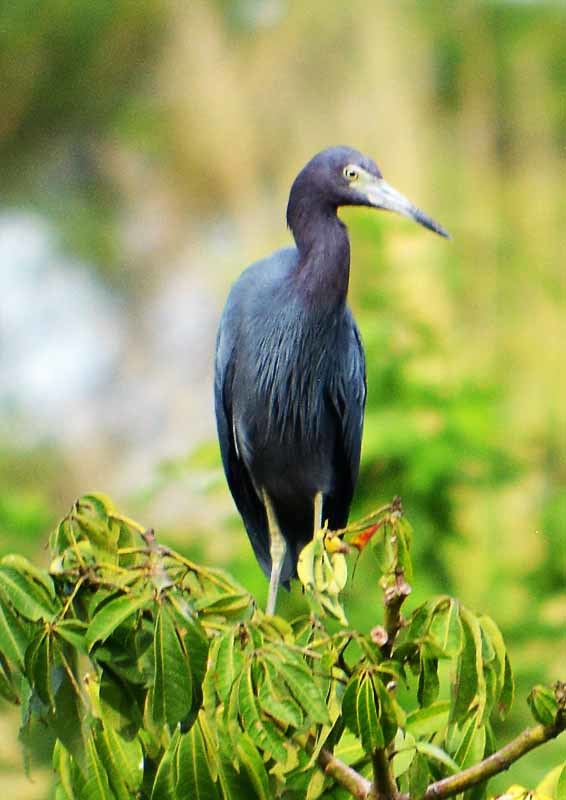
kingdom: Animalia
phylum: Chordata
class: Aves
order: Pelecaniformes
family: Ardeidae
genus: Egretta
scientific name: Egretta caerulea
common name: Little blue heron
